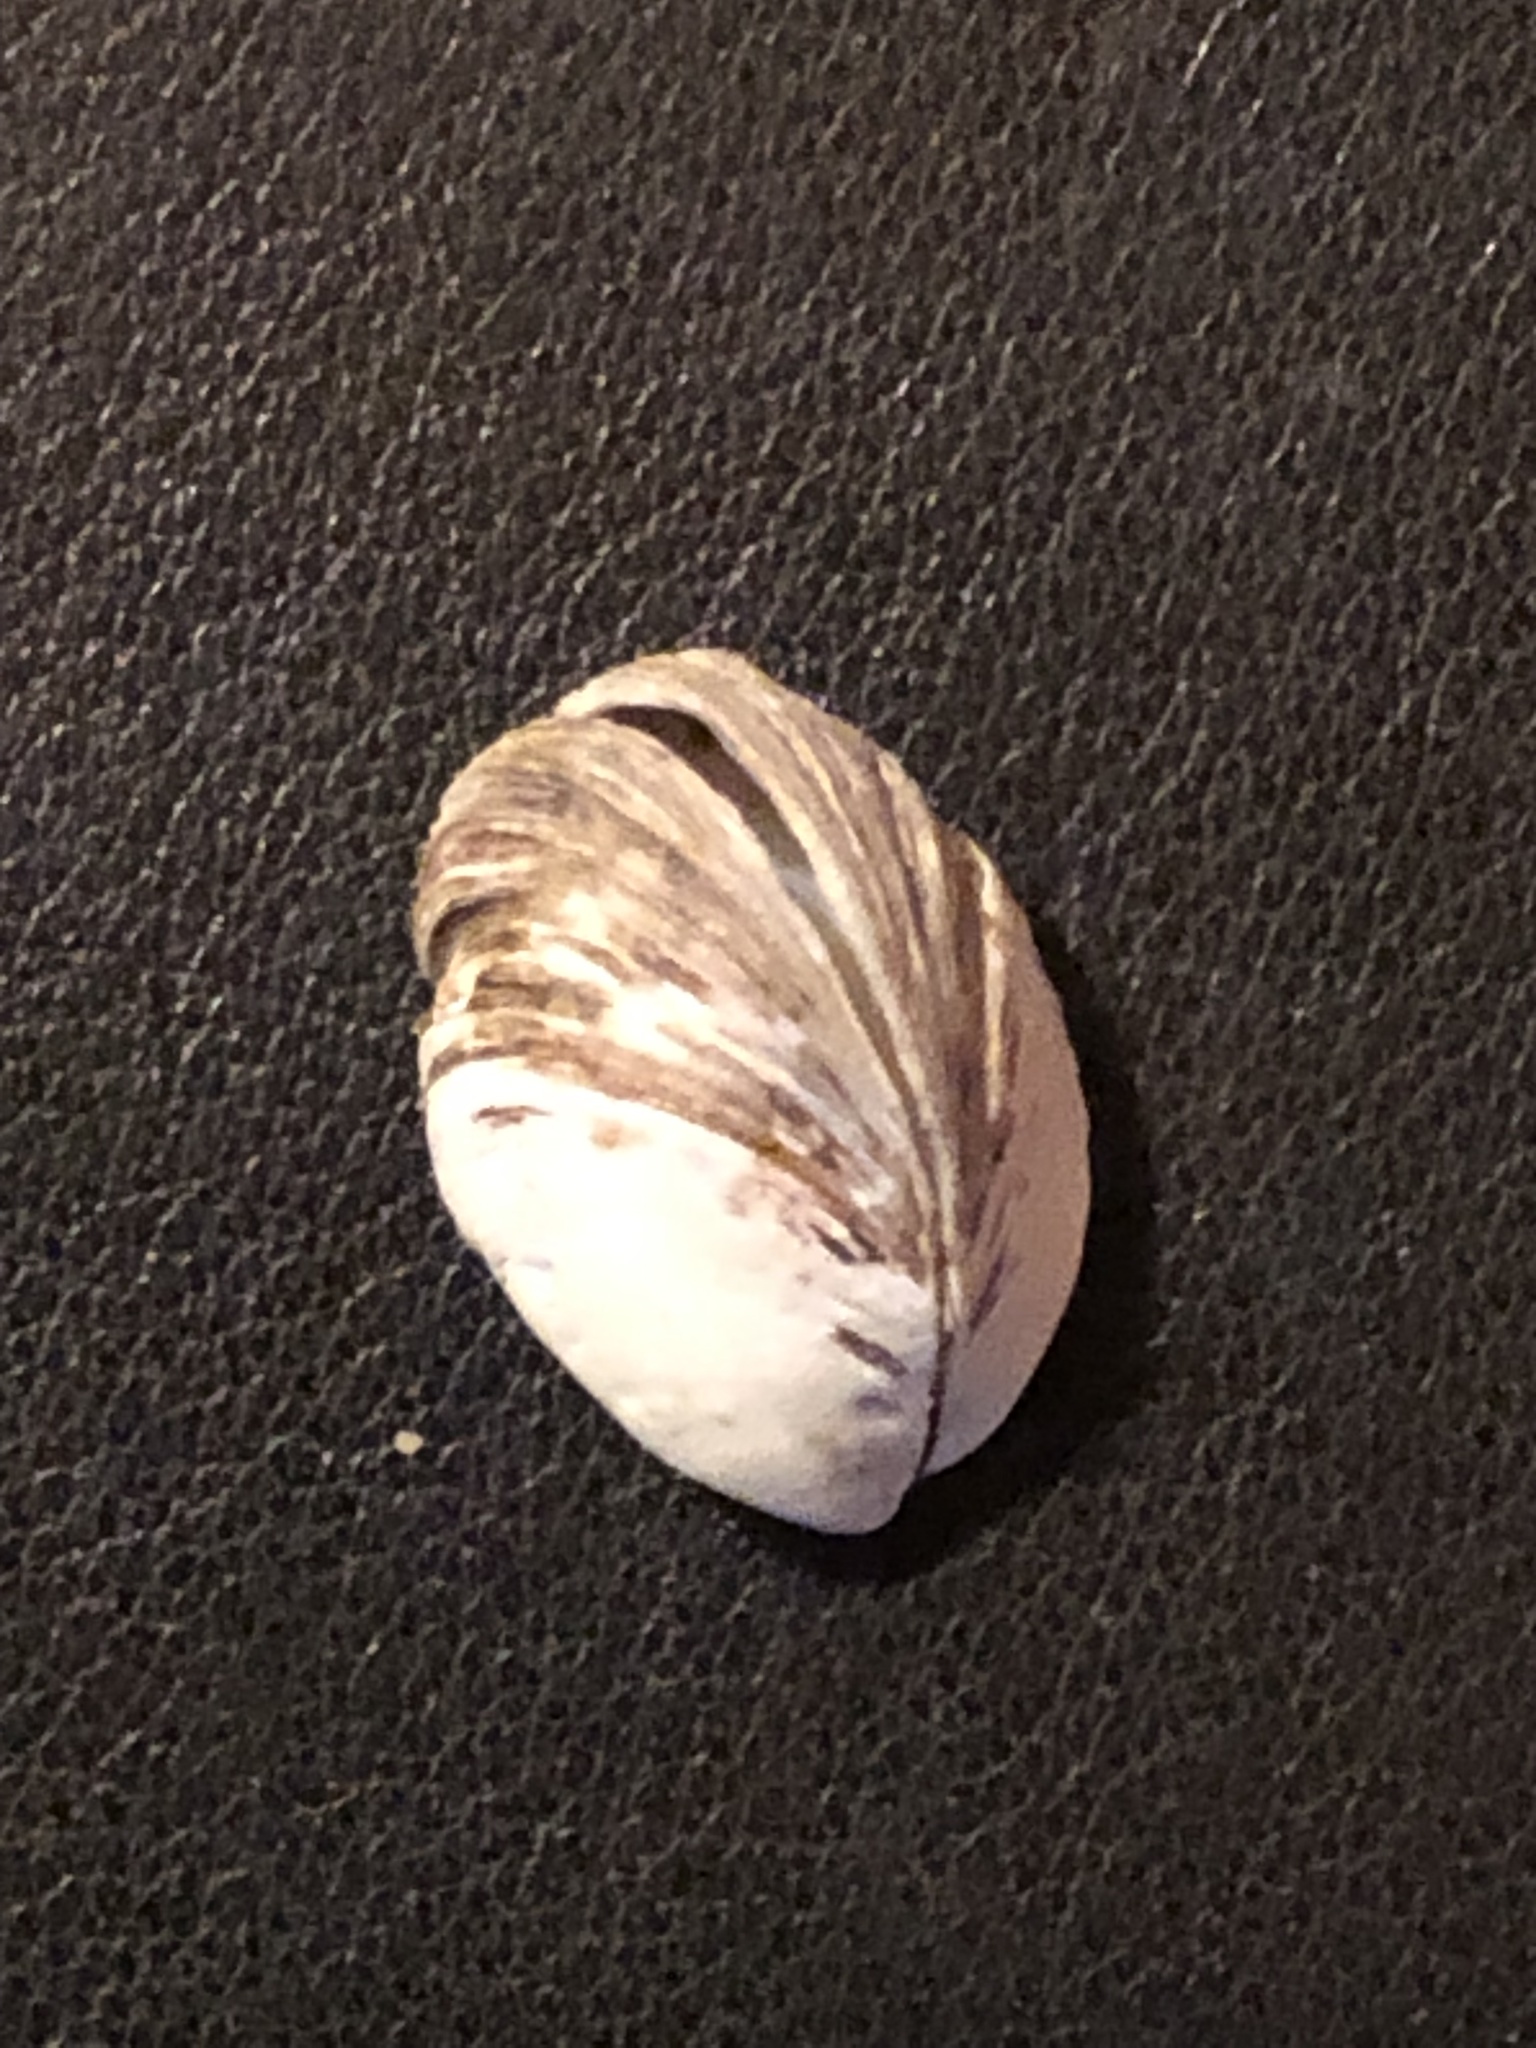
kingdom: Animalia
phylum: Mollusca
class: Bivalvia
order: Myida
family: Dreissenidae
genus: Dreissena
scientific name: Dreissena polymorpha
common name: Zebra mussel
